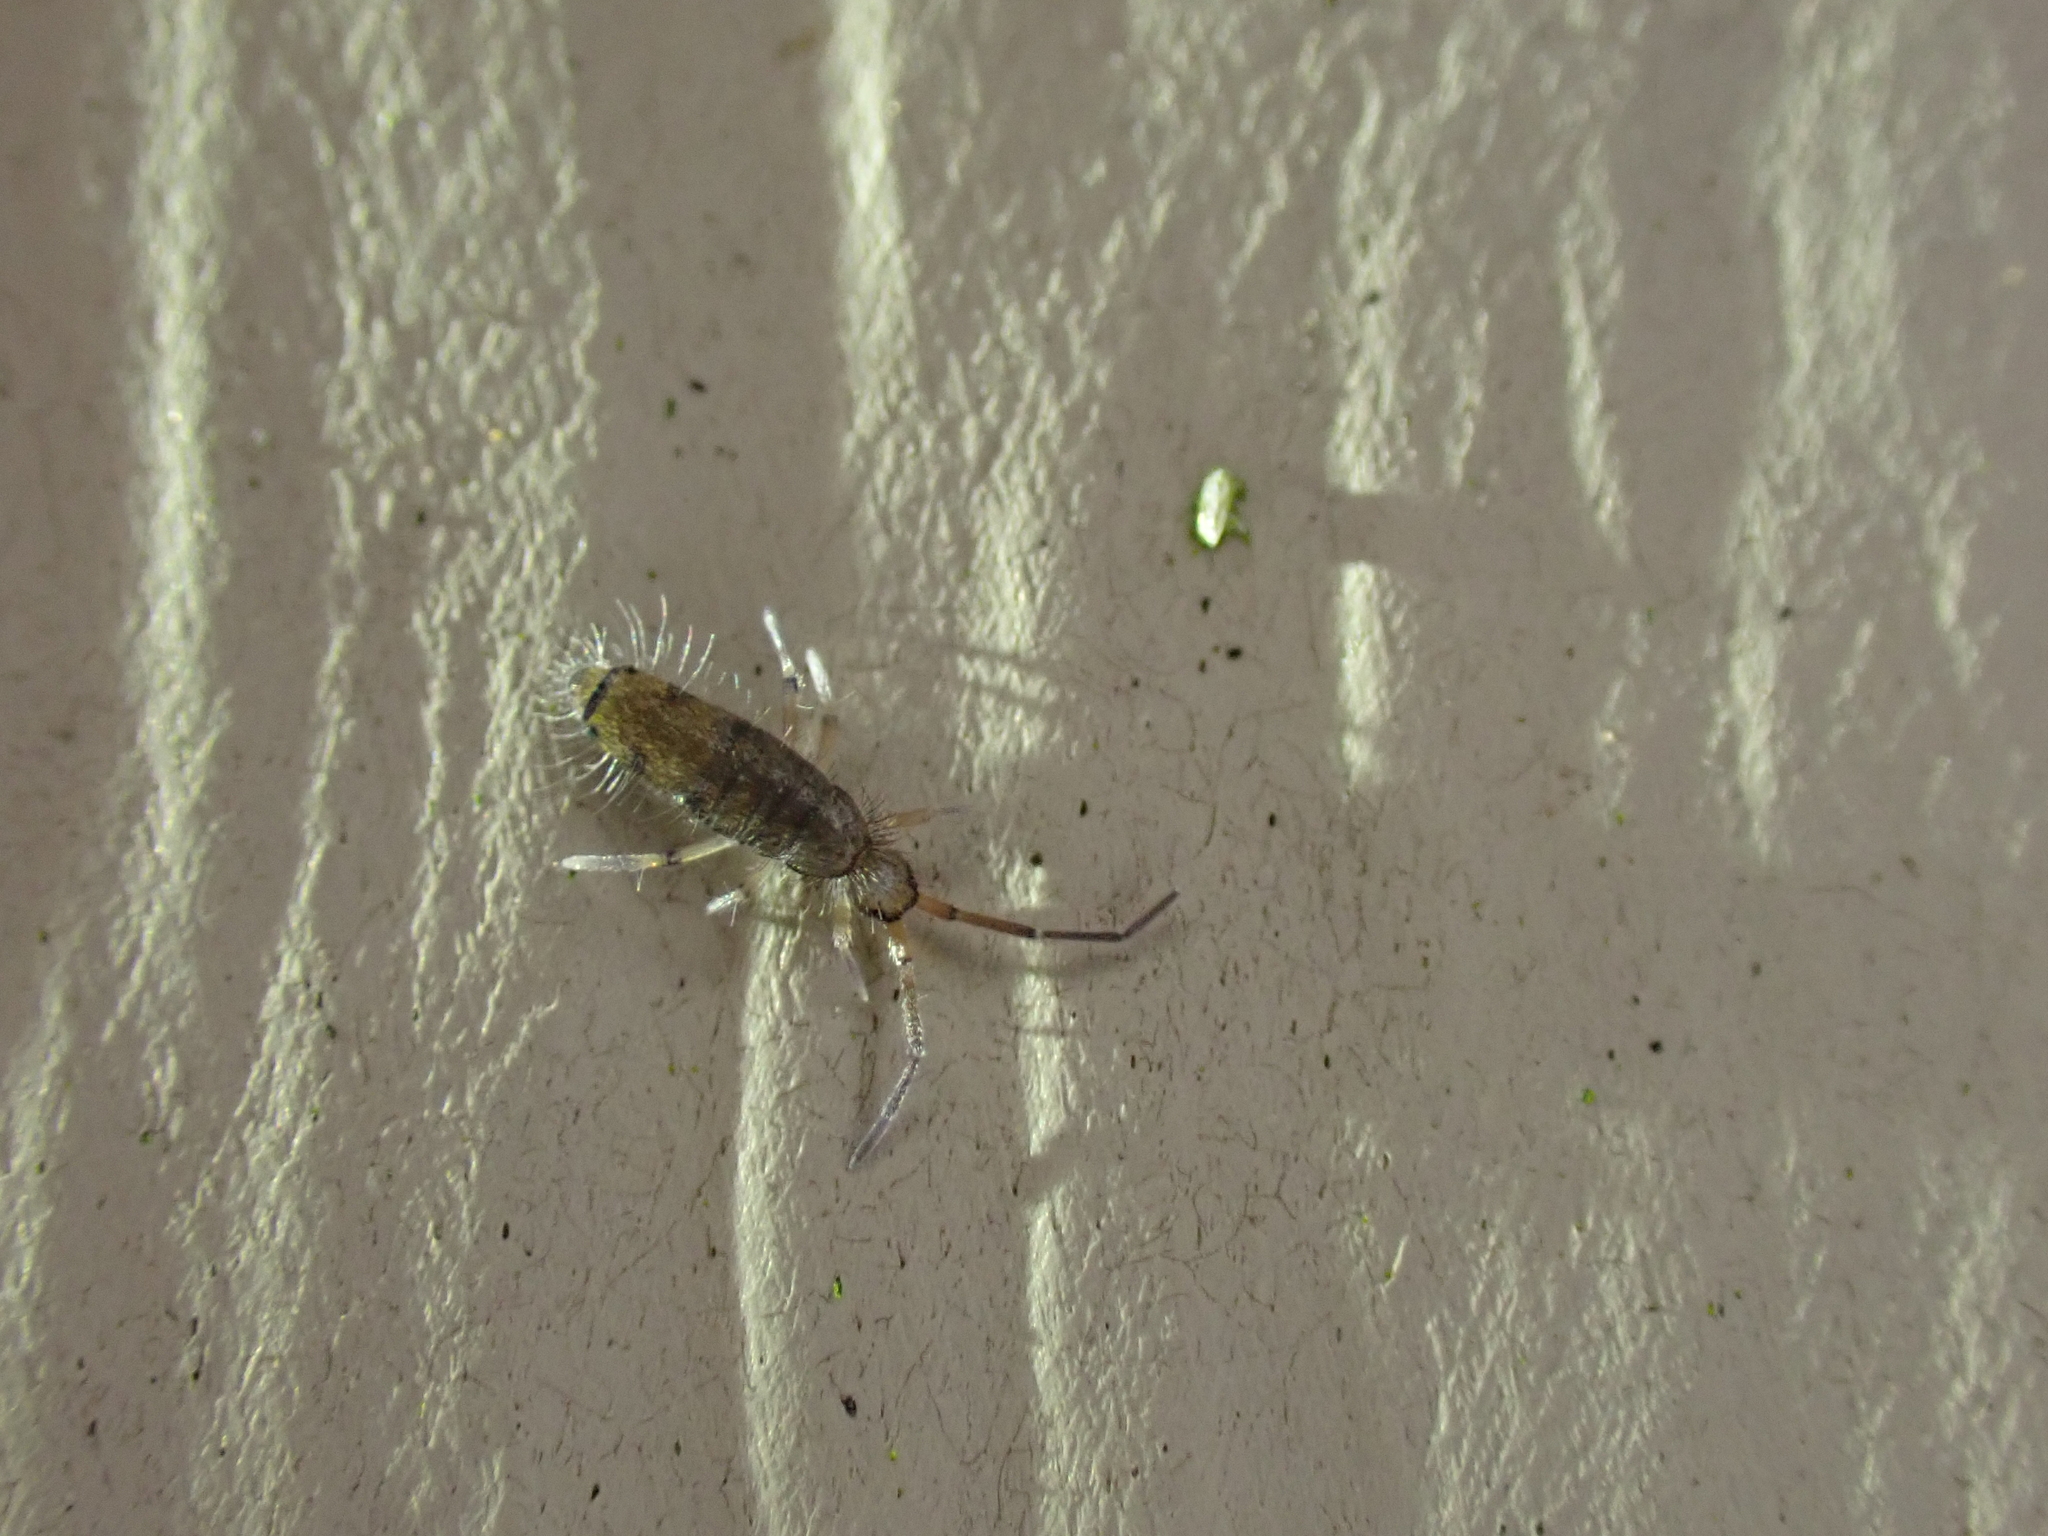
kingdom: Animalia
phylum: Arthropoda
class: Collembola
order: Entomobryomorpha
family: Entomobryidae
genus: Willowsia
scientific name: Willowsia nigromaculata
